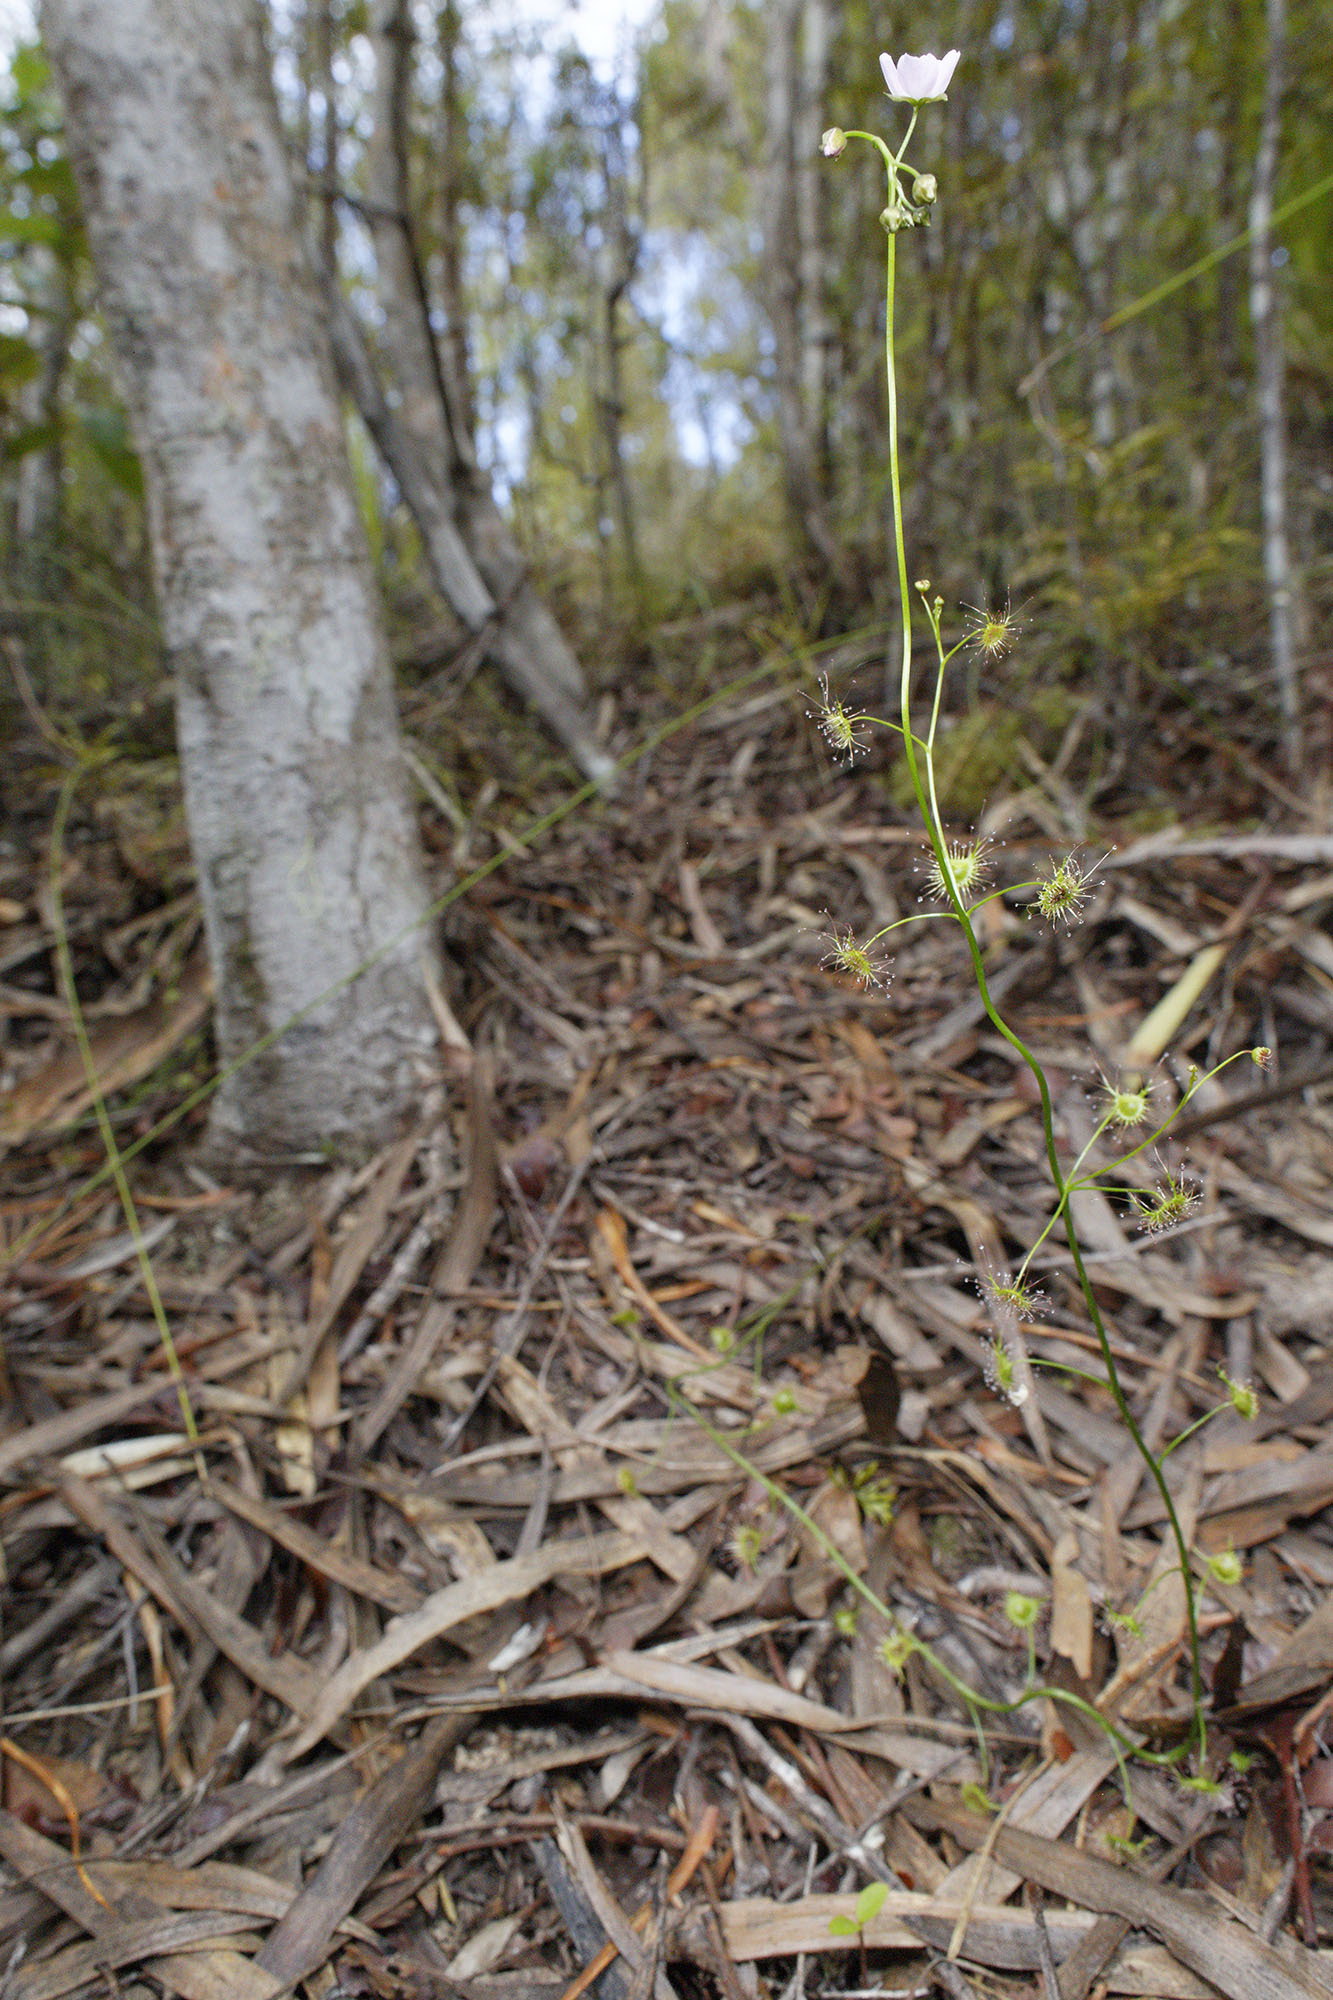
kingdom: Plantae
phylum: Tracheophyta
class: Magnoliopsida
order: Caryophyllales
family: Droseraceae
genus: Drosera
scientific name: Drosera peltata
